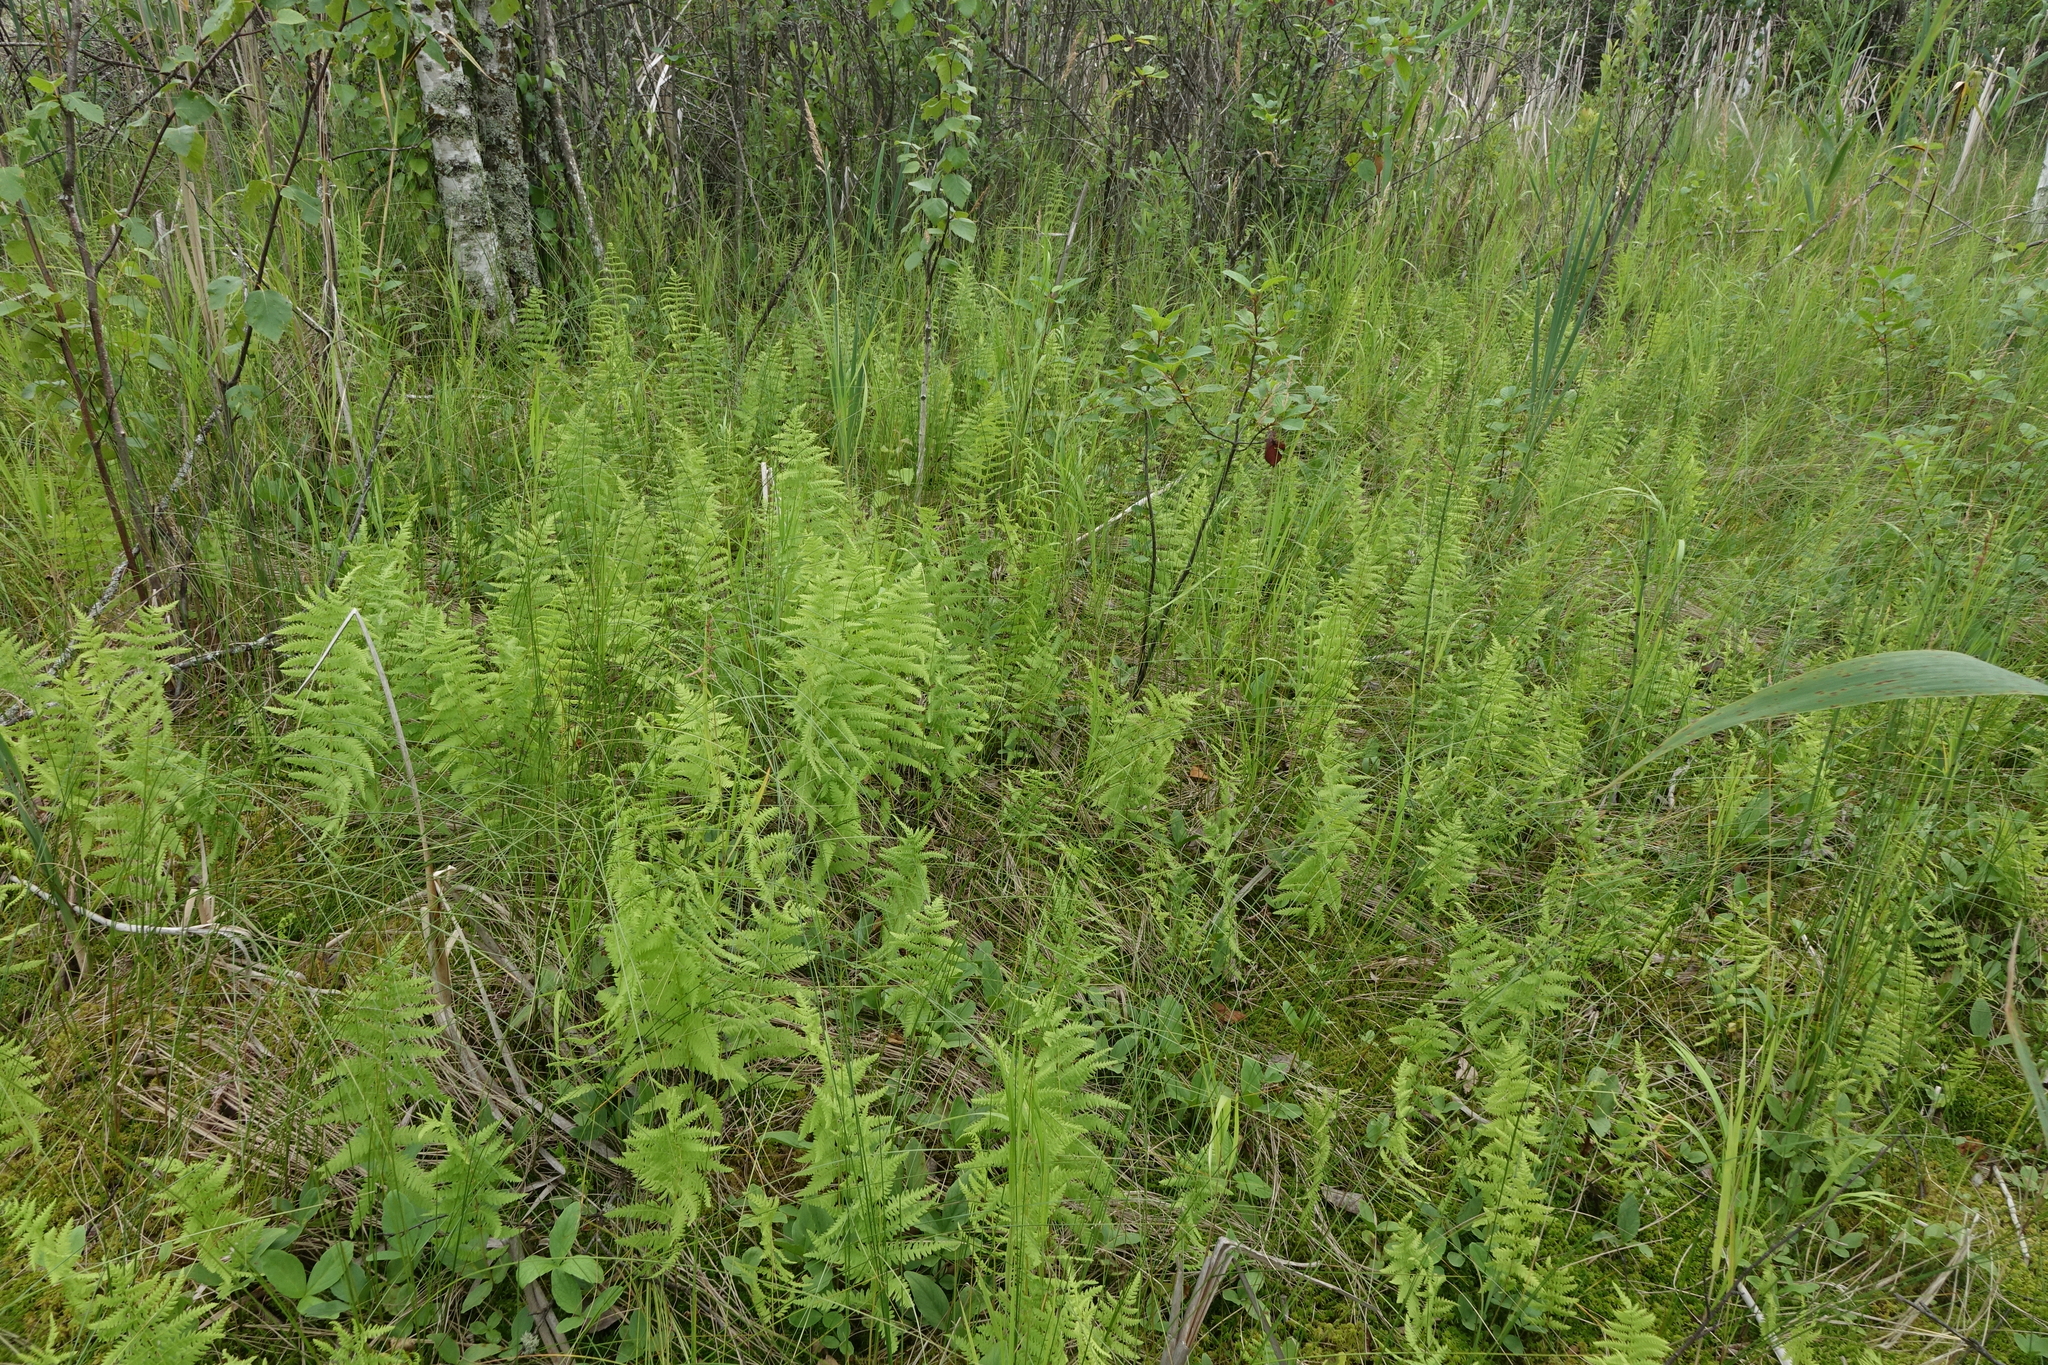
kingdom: Plantae
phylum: Tracheophyta
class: Polypodiopsida
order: Polypodiales
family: Thelypteridaceae
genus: Thelypteris
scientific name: Thelypteris palustris
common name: Marsh fern
